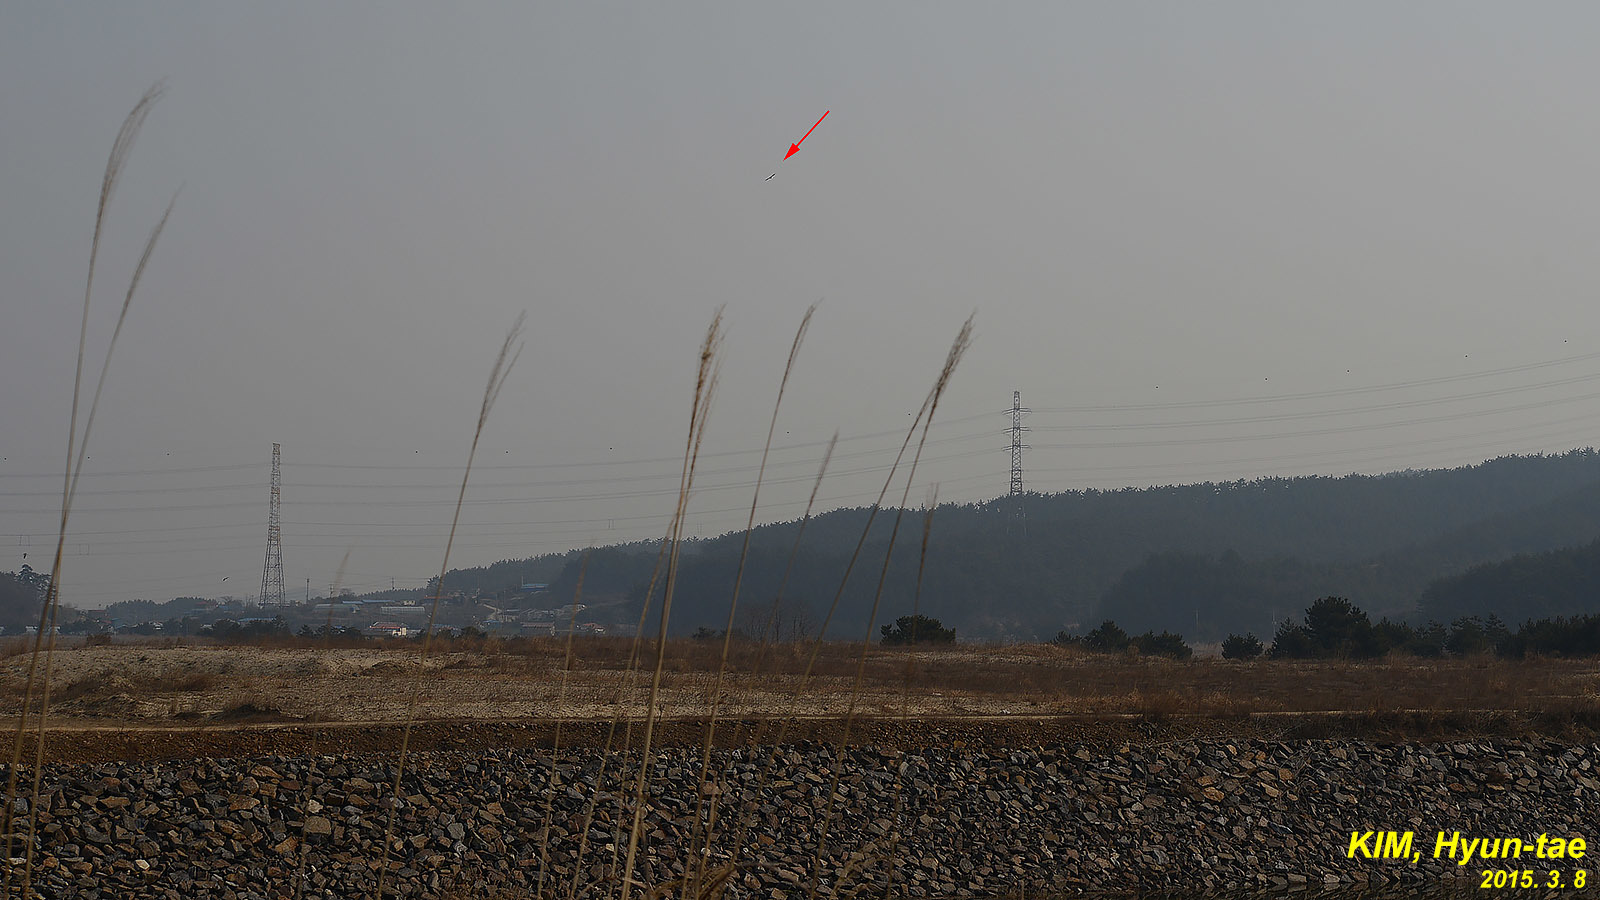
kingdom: Animalia
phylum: Chordata
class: Aves
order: Ciconiiformes
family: Ciconiidae
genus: Ciconia
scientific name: Ciconia boyciana
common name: Oriental stork
